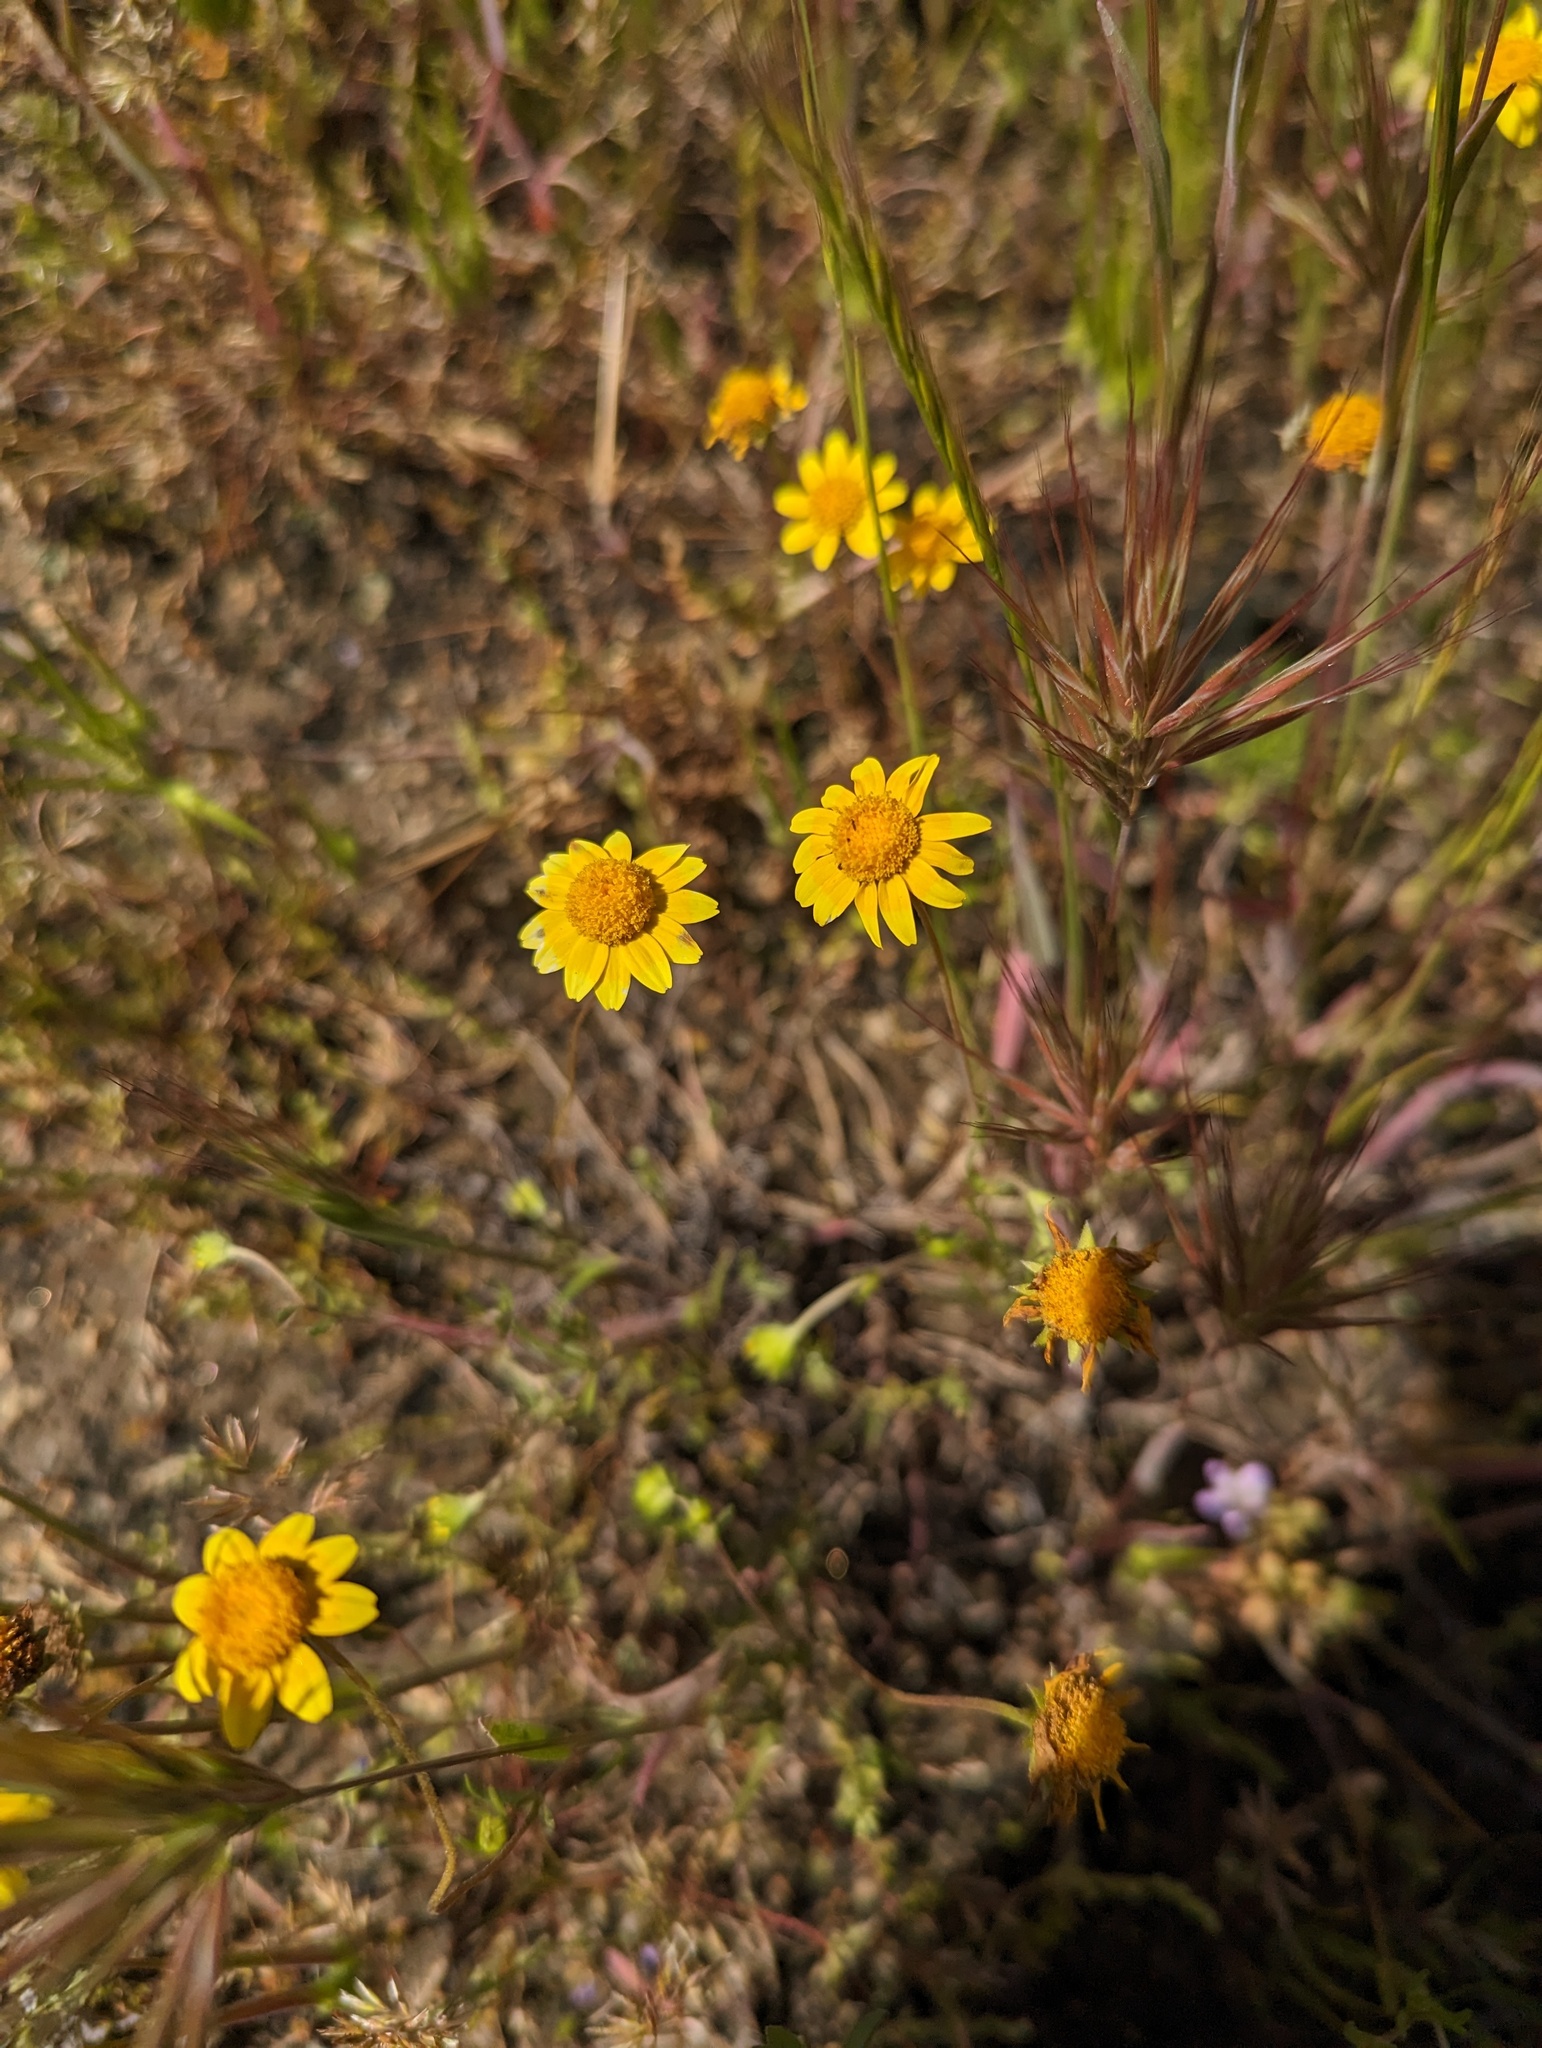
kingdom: Plantae
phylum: Tracheophyta
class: Magnoliopsida
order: Asterales
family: Asteraceae
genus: Lasthenia
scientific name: Lasthenia gracilis
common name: Common goldfields
